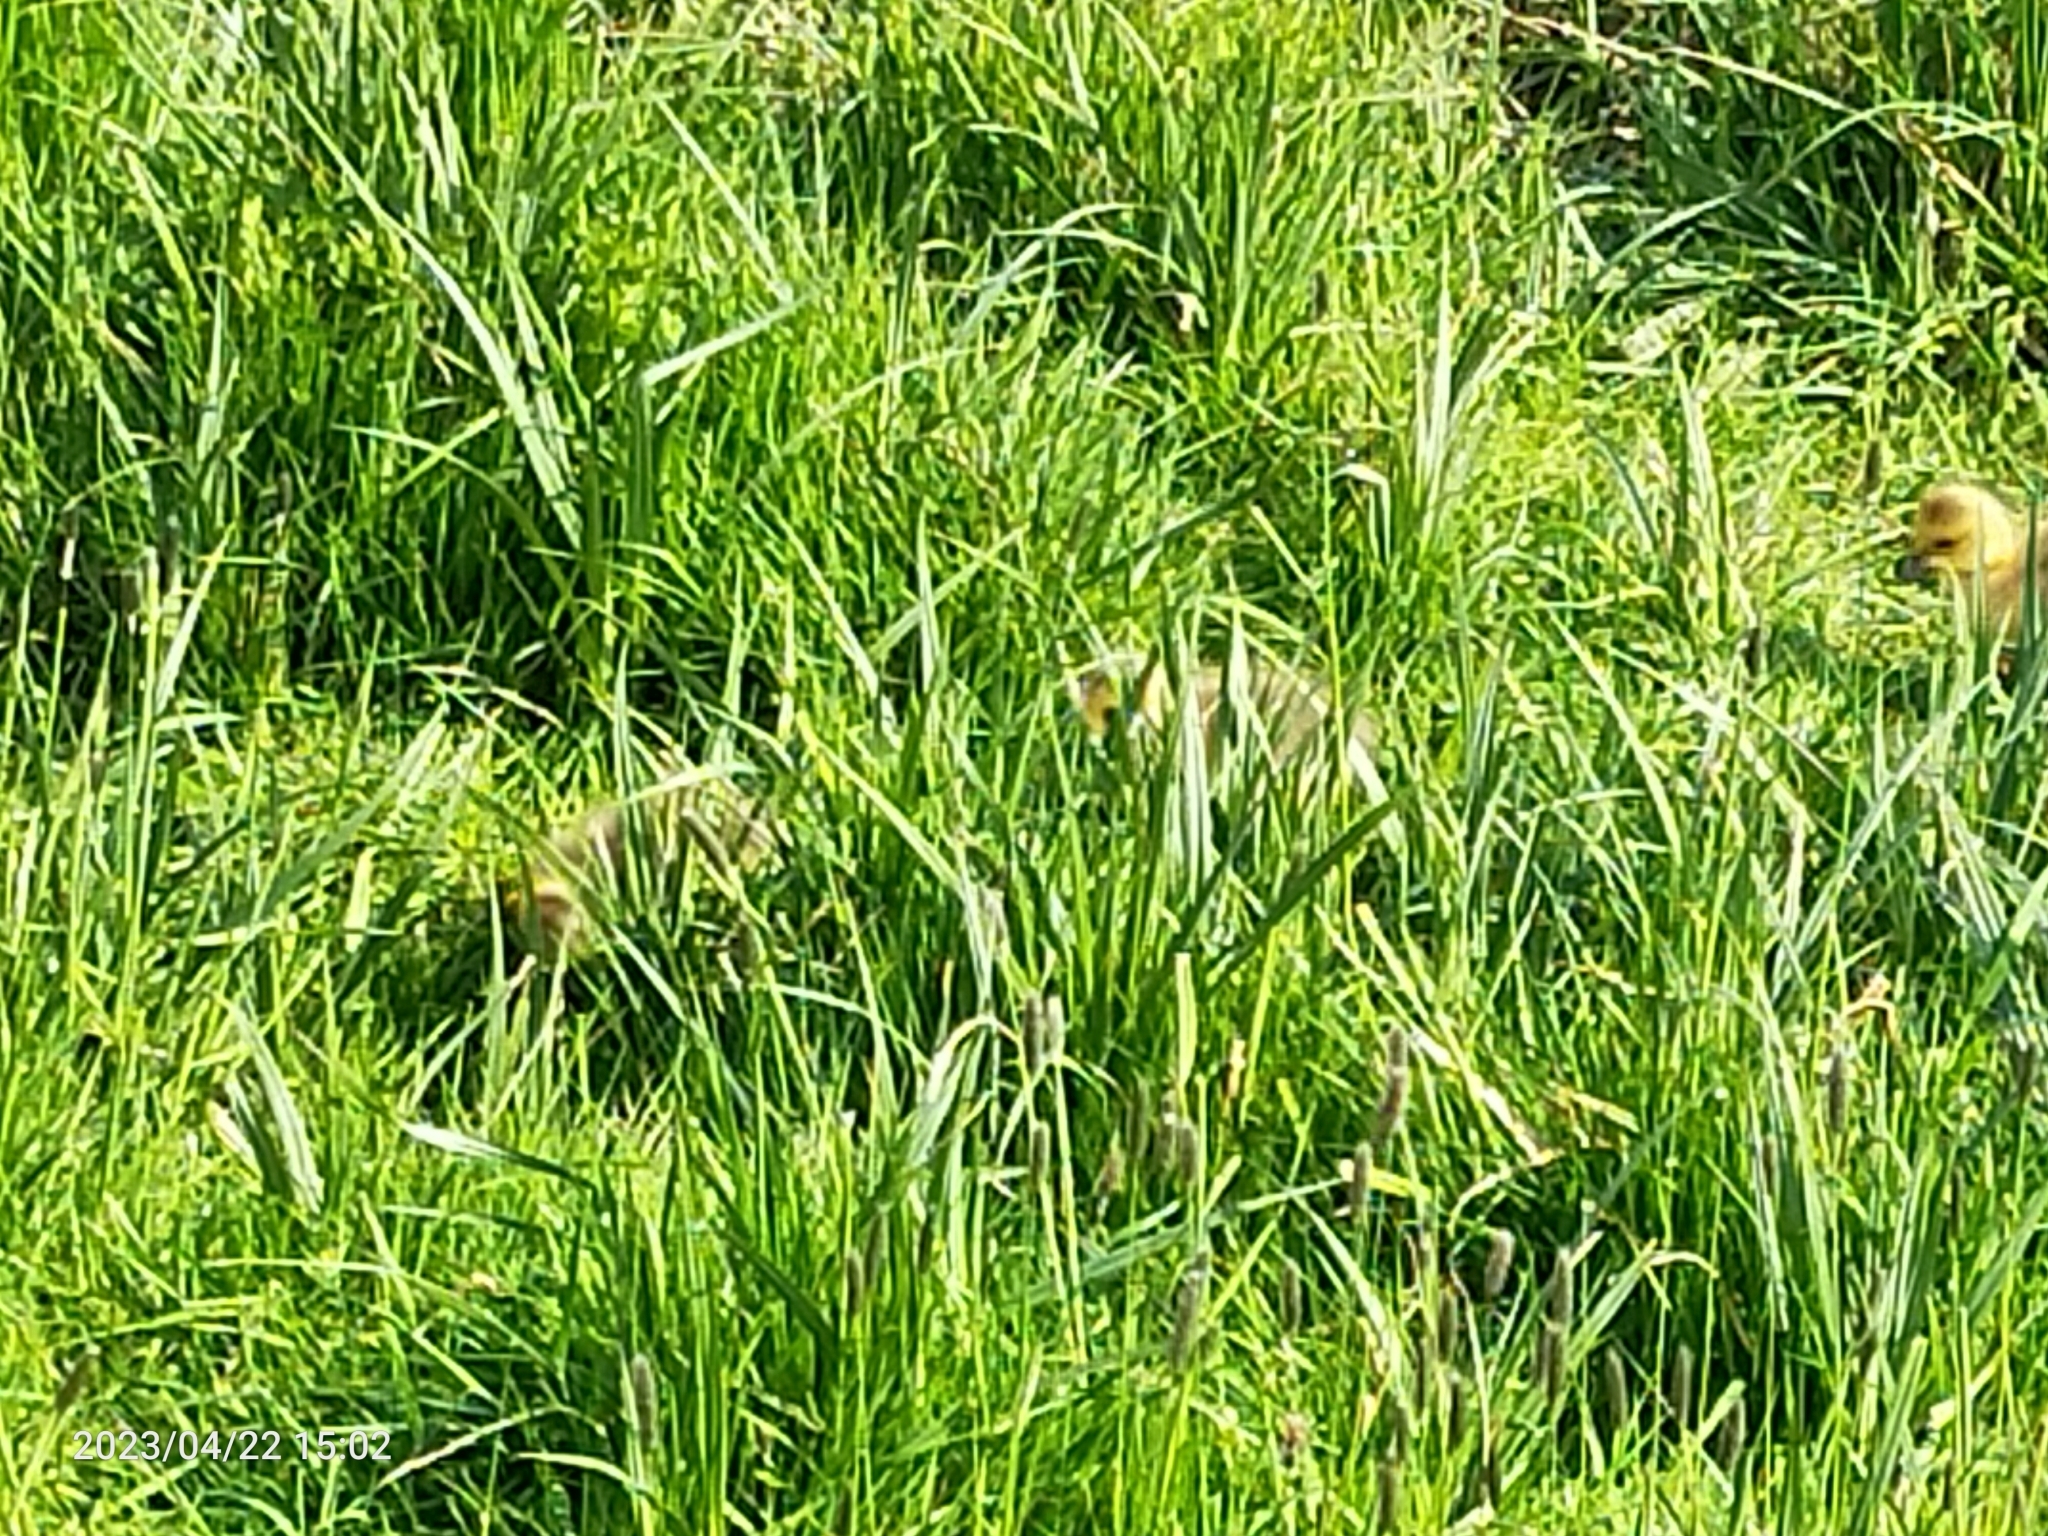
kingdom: Animalia
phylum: Chordata
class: Aves
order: Anseriformes
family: Anatidae
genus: Branta
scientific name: Branta canadensis
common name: Canada goose
